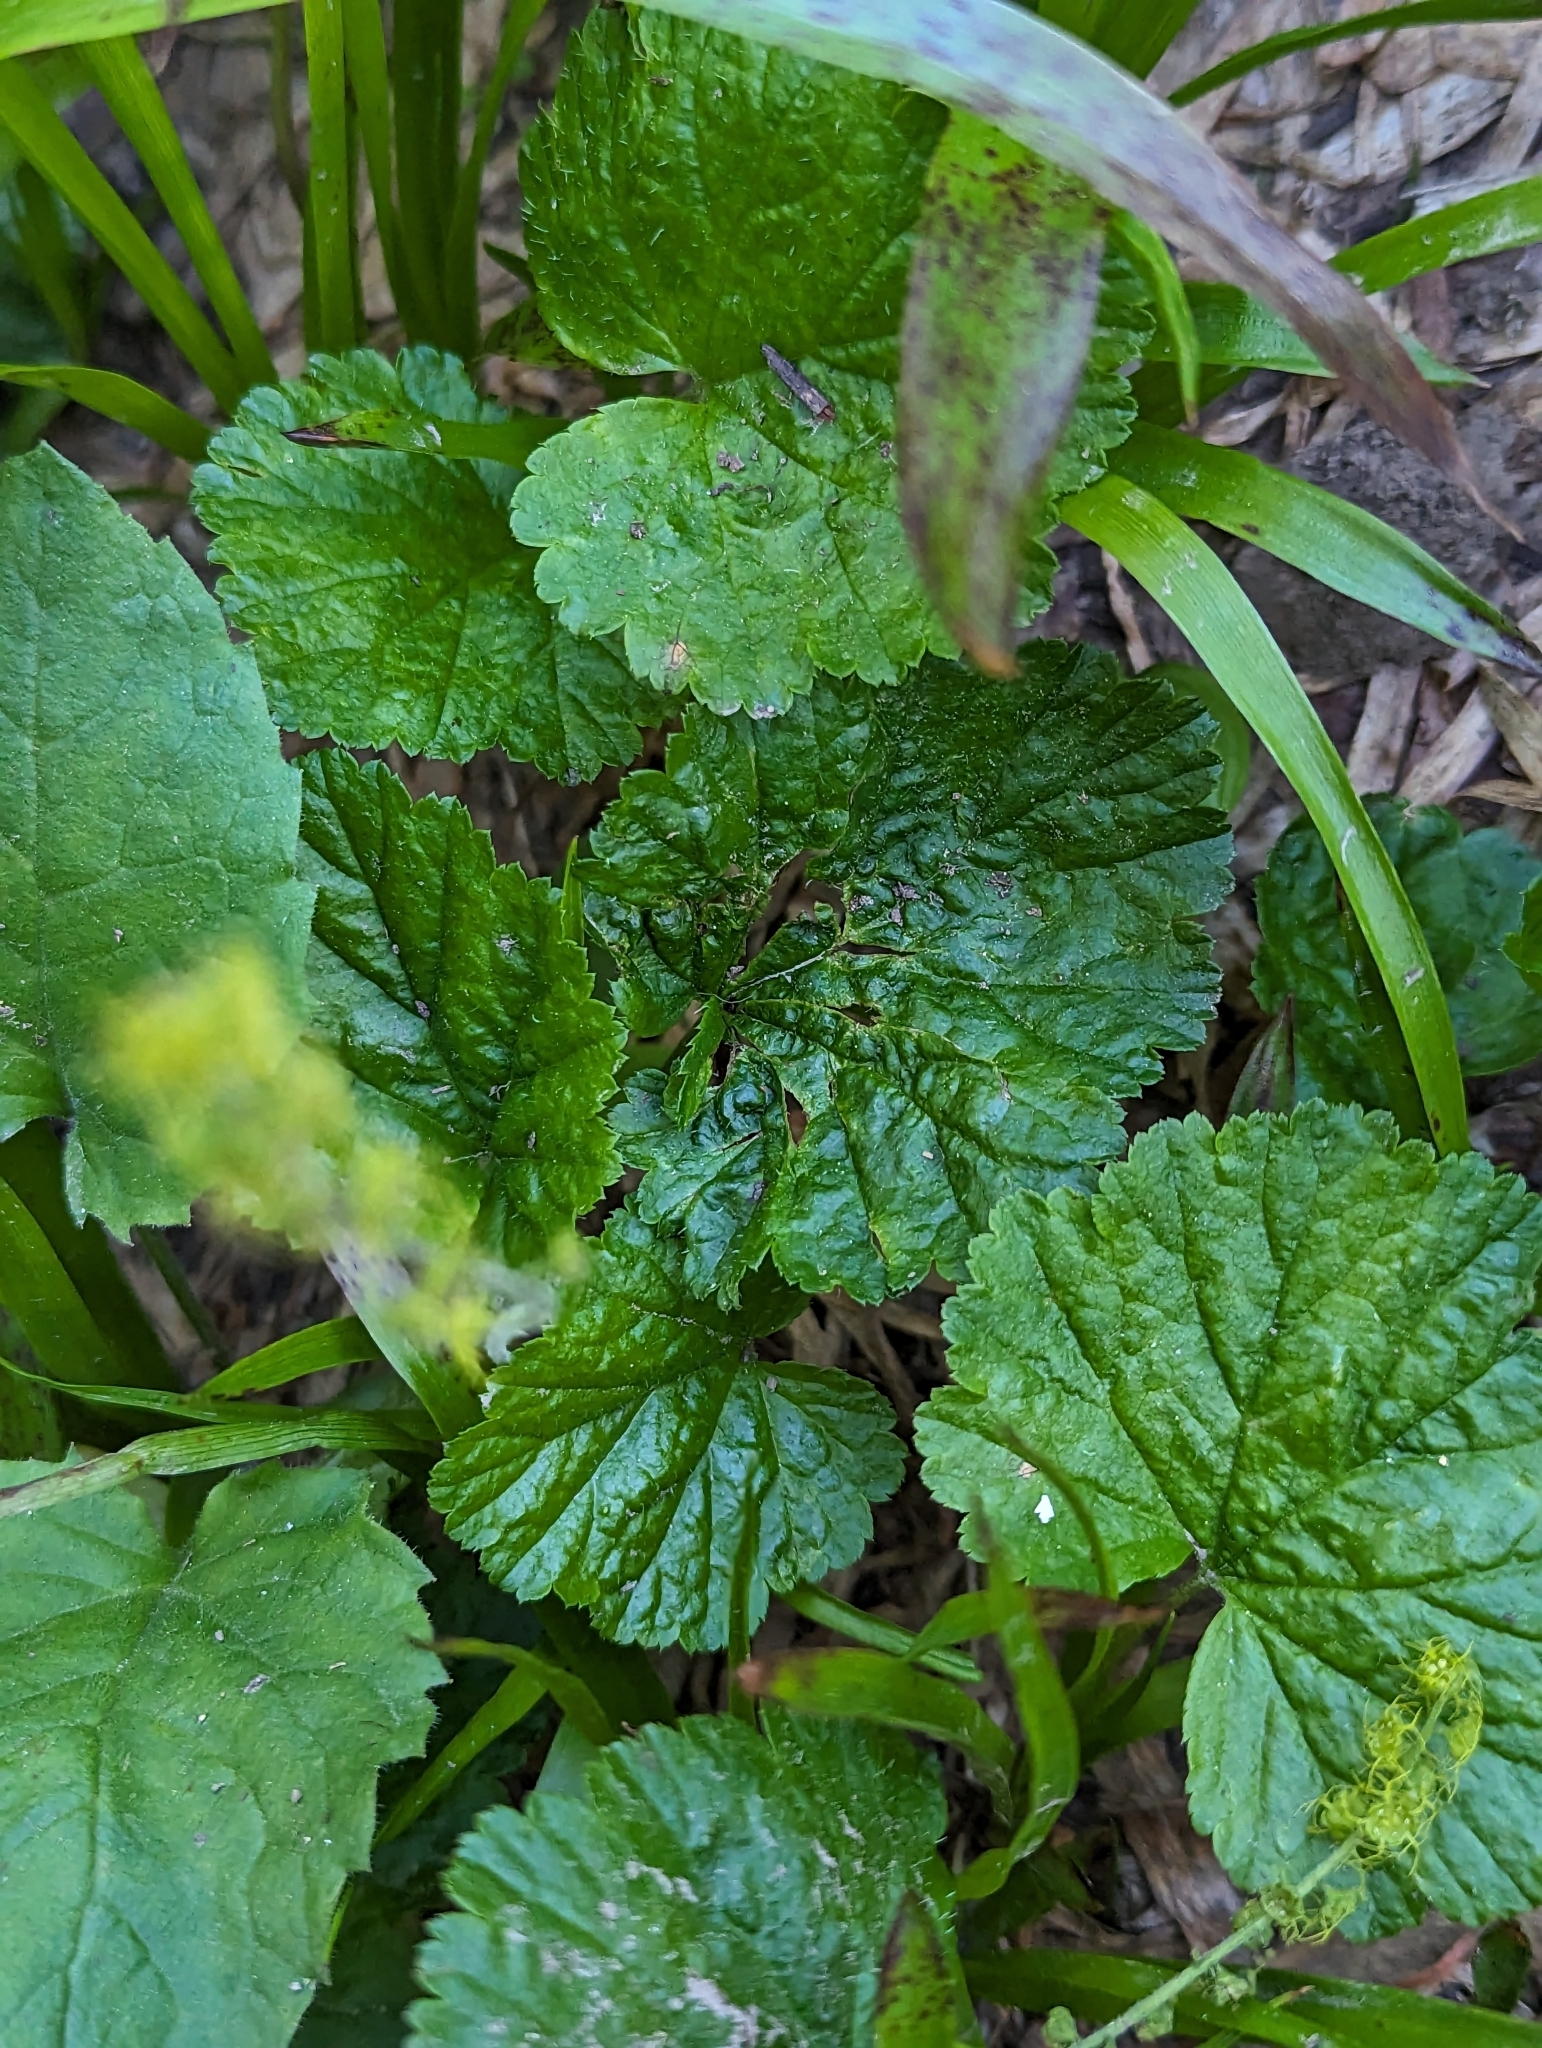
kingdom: Plantae
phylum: Tracheophyta
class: Magnoliopsida
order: Saxifragales
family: Saxifragaceae
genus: Brewerimitella
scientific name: Brewerimitella breweri
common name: Brewer's bishop's-cap
